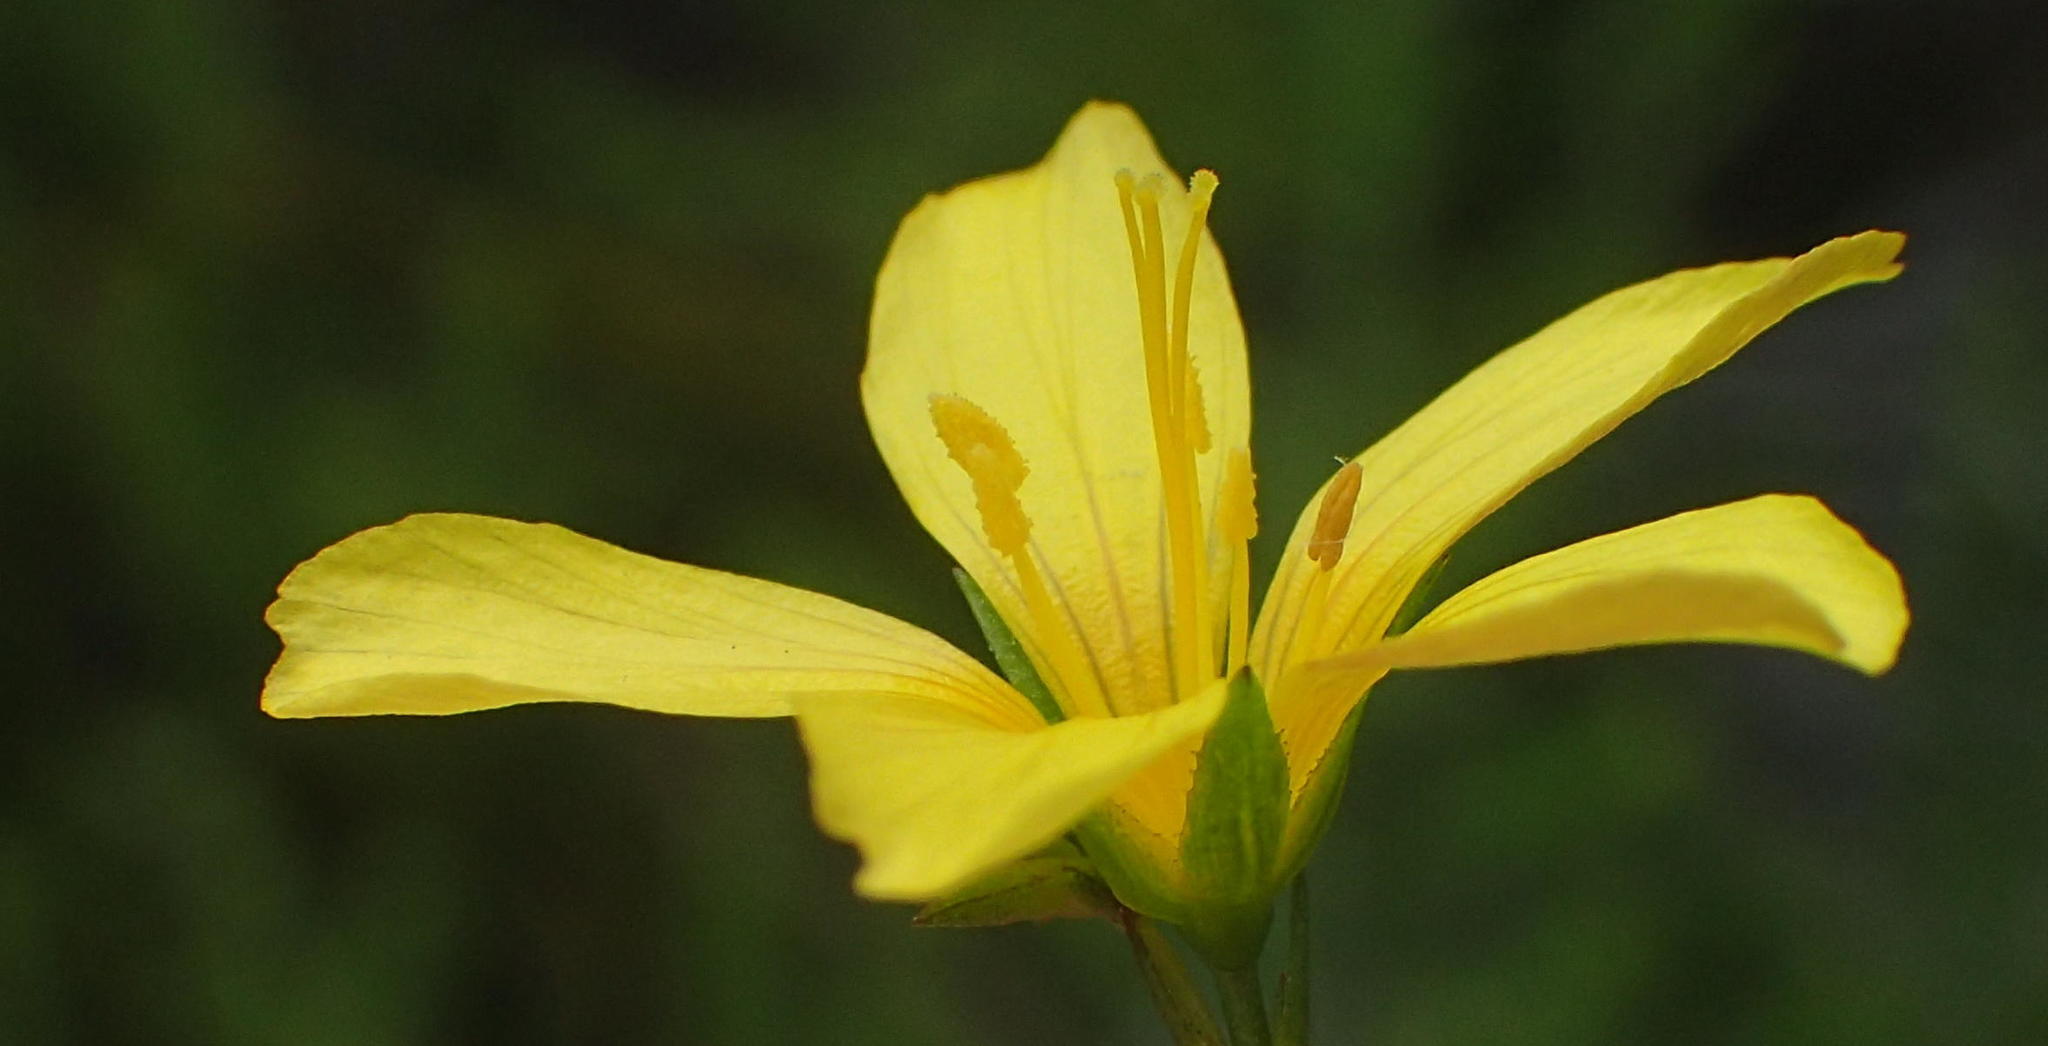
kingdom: Plantae
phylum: Tracheophyta
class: Magnoliopsida
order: Malpighiales
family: Linaceae
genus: Linum
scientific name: Linum africanum
